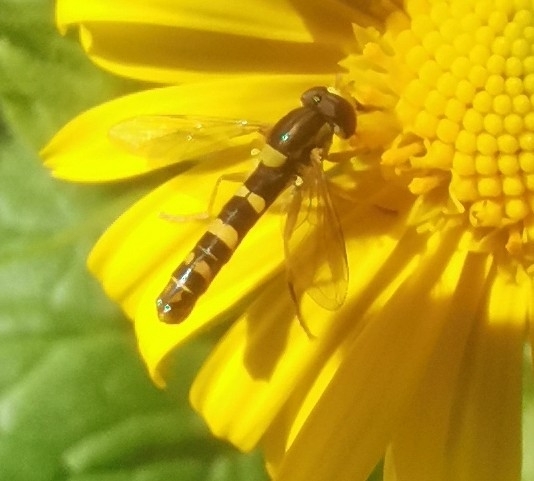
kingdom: Animalia
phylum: Arthropoda
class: Insecta
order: Diptera
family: Syrphidae
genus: Sphaerophoria
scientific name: Sphaerophoria scripta
